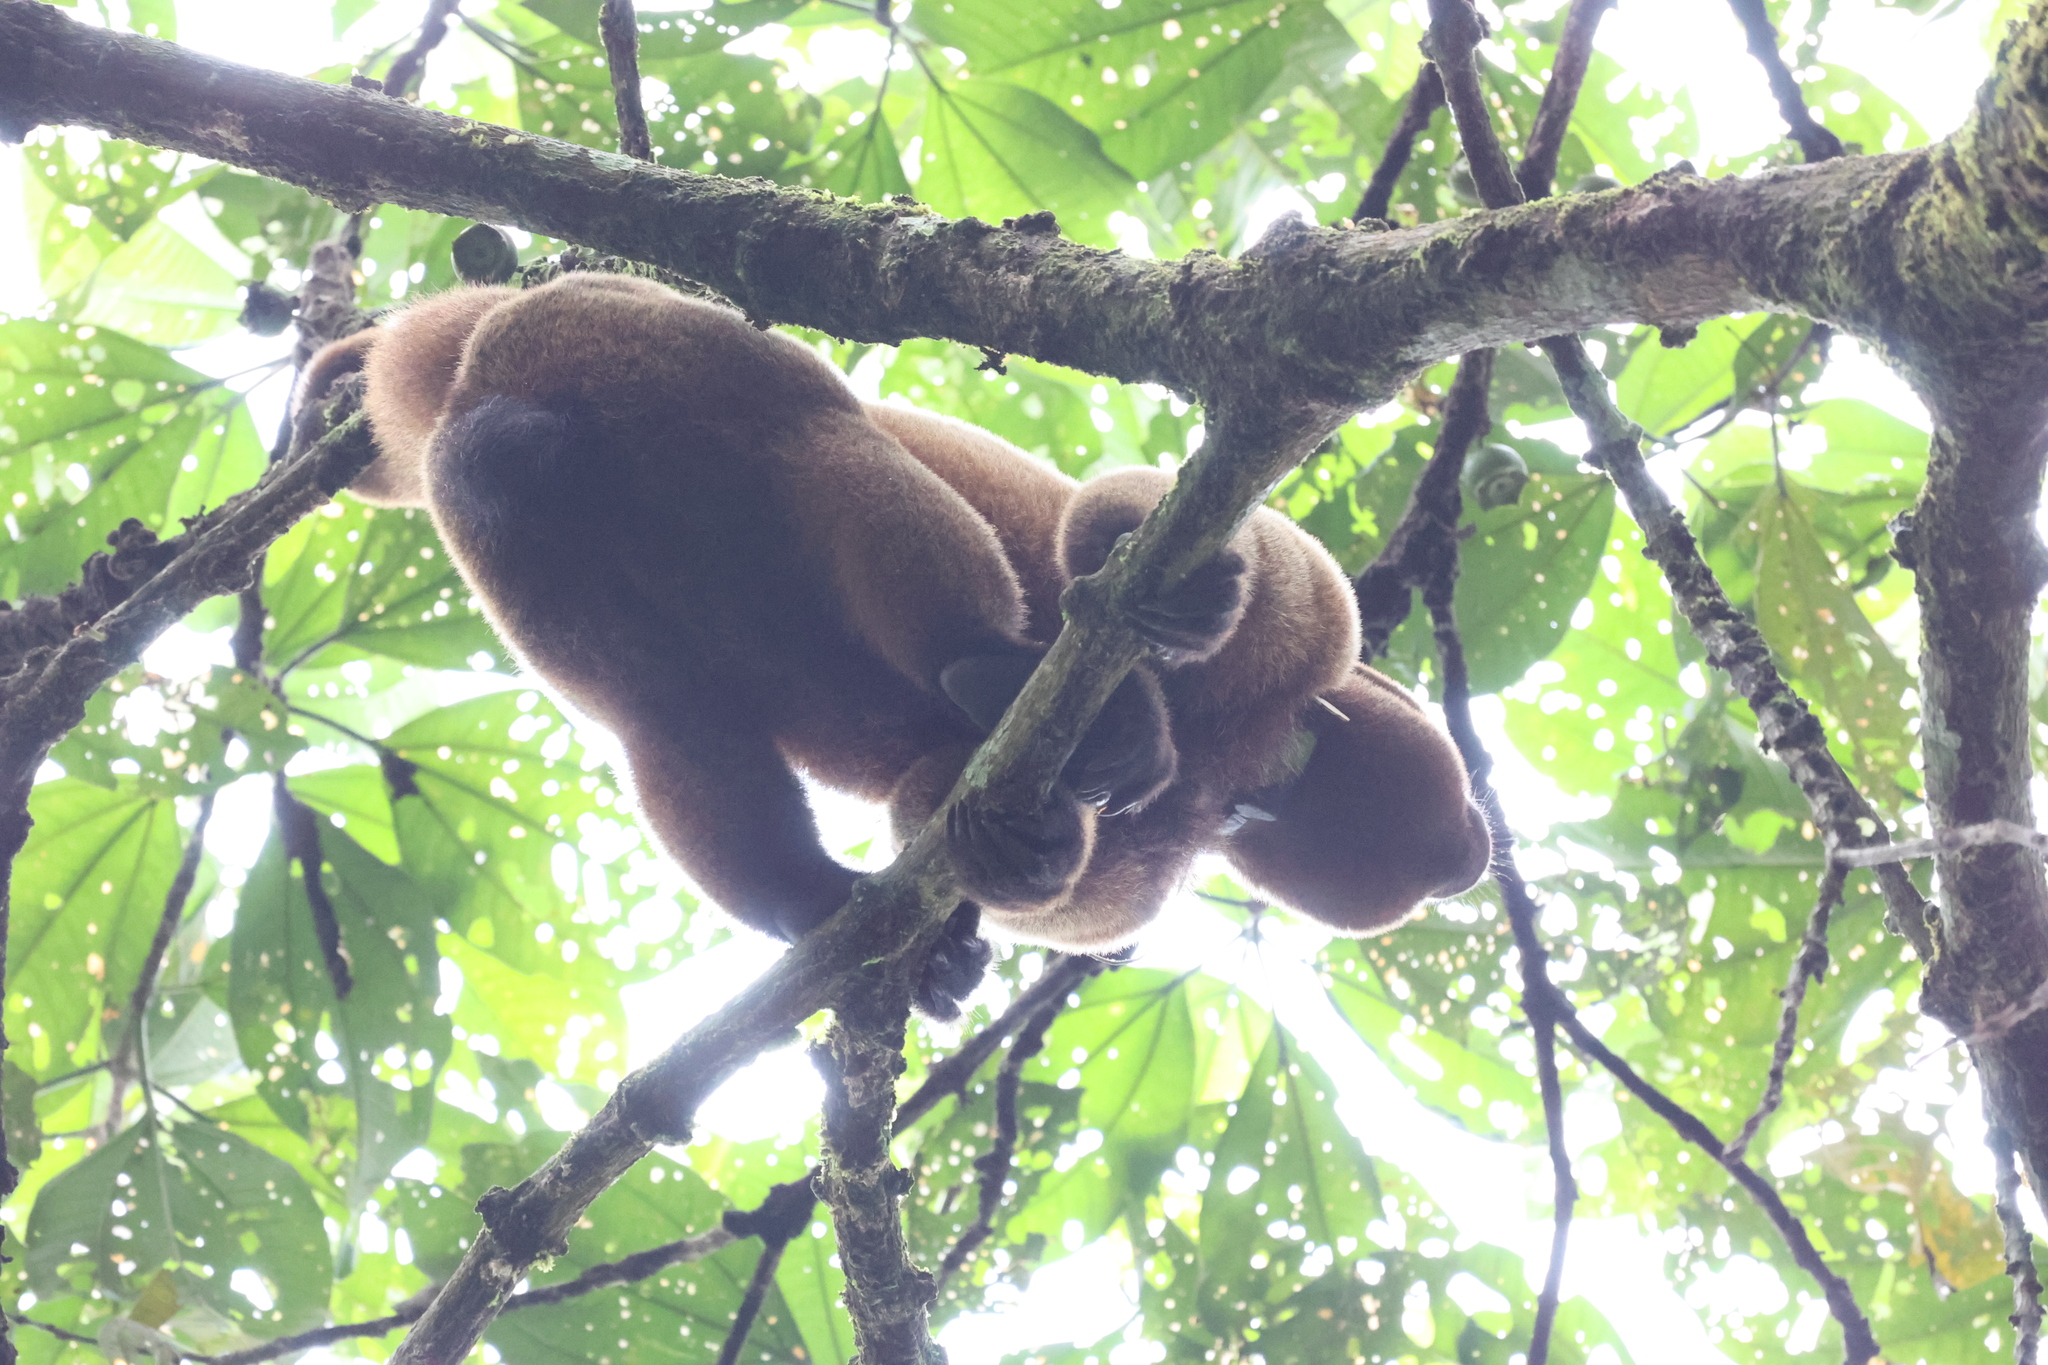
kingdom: Animalia
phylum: Chordata
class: Mammalia
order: Primates
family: Atelidae
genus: Lagothrix
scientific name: Lagothrix lagothricha
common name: Brown woolly monkey
